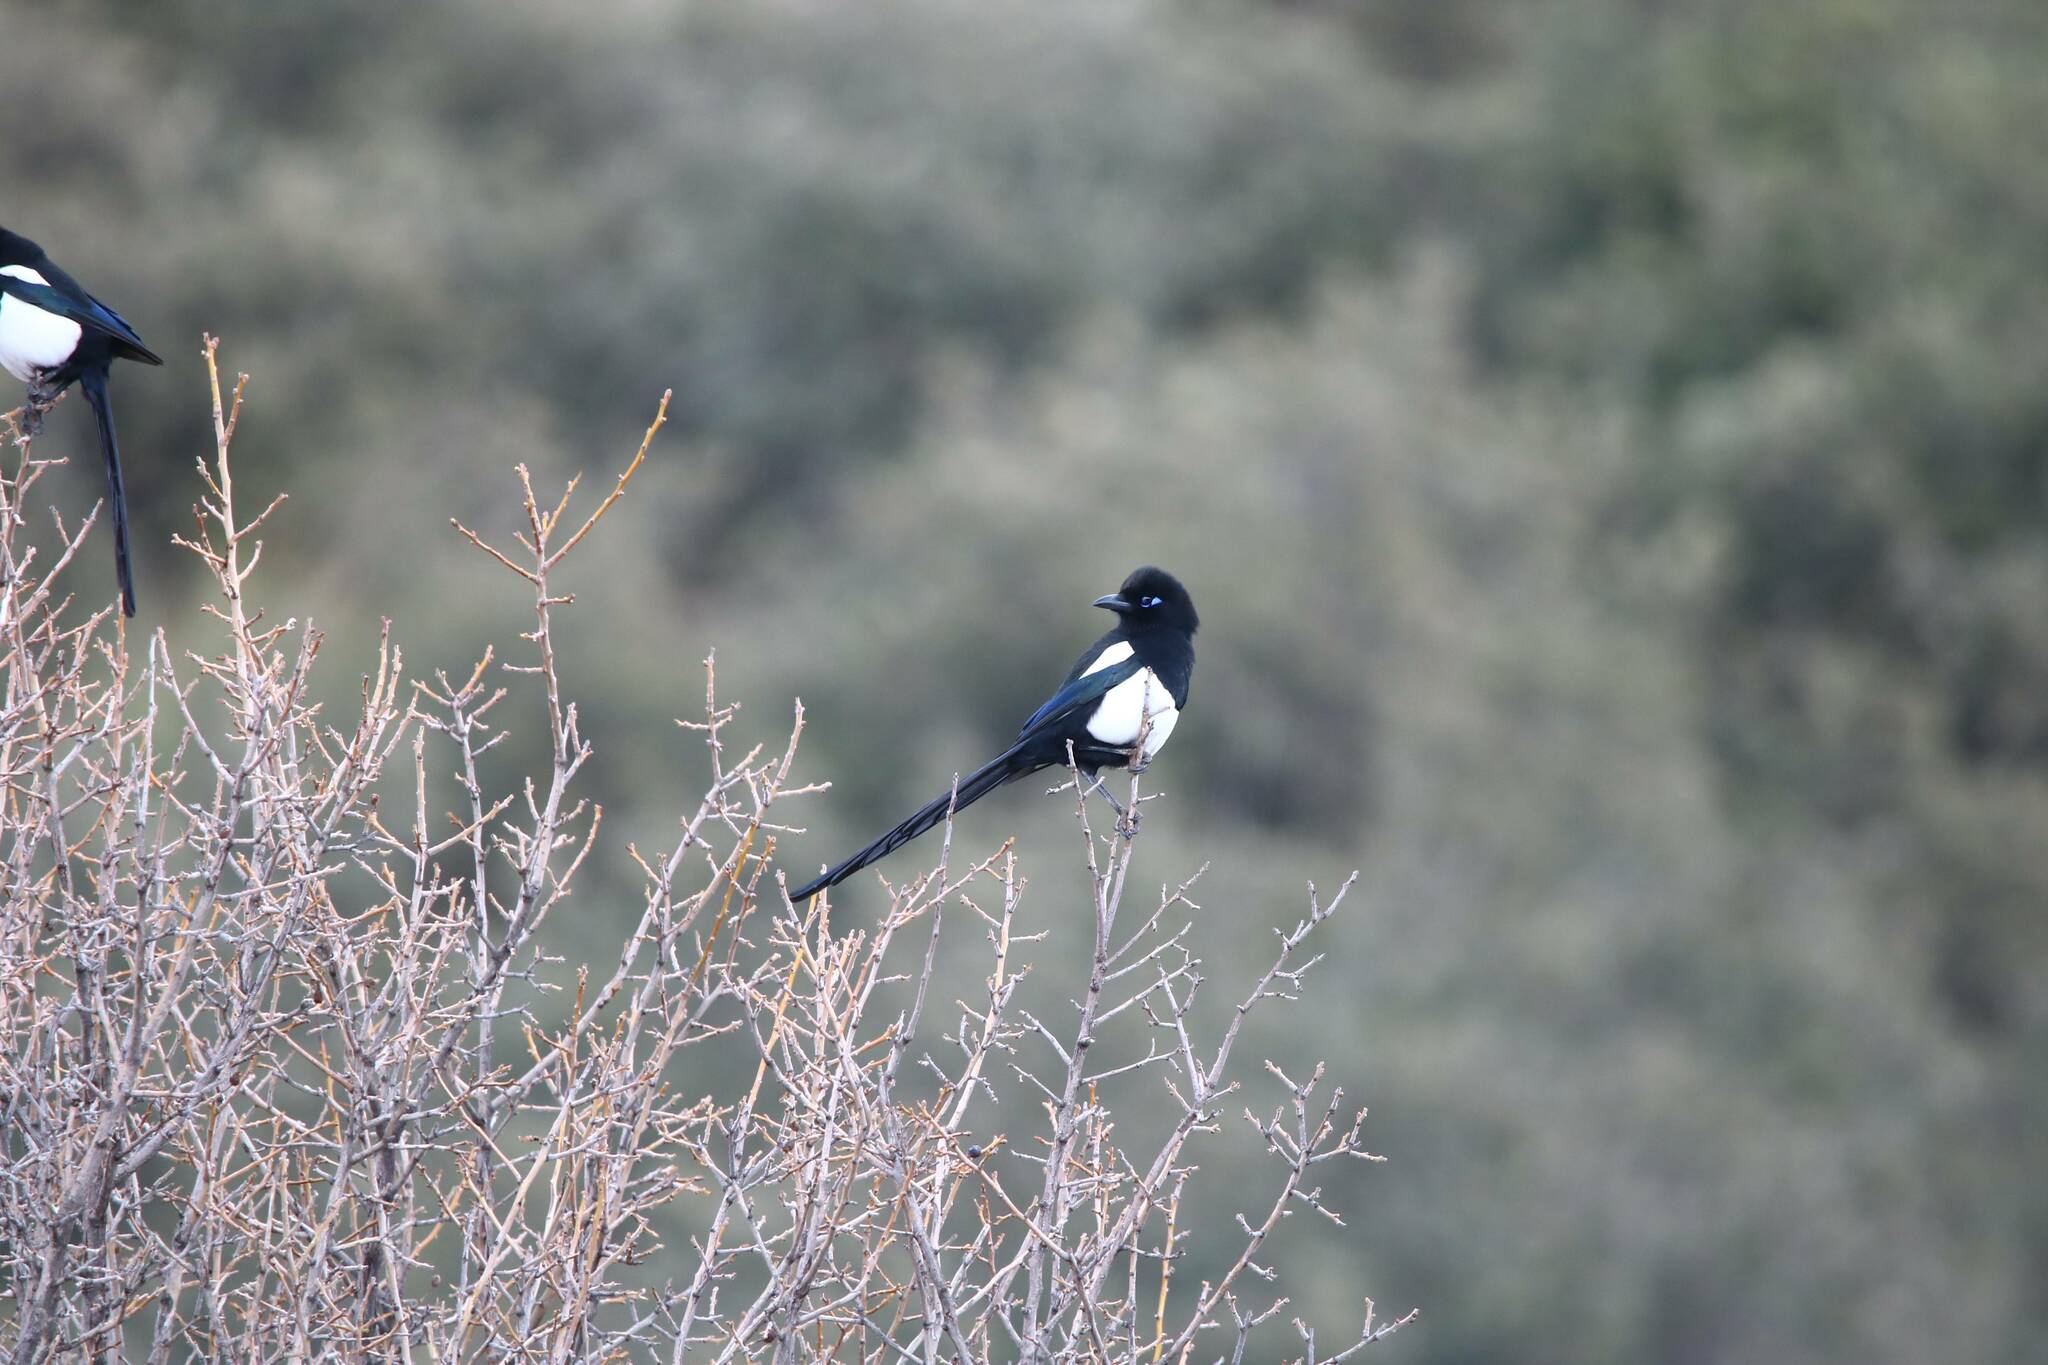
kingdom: Animalia
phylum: Chordata
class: Aves
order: Passeriformes
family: Corvidae
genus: Pica
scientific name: Pica mauritanica
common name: Maghreb magpie
